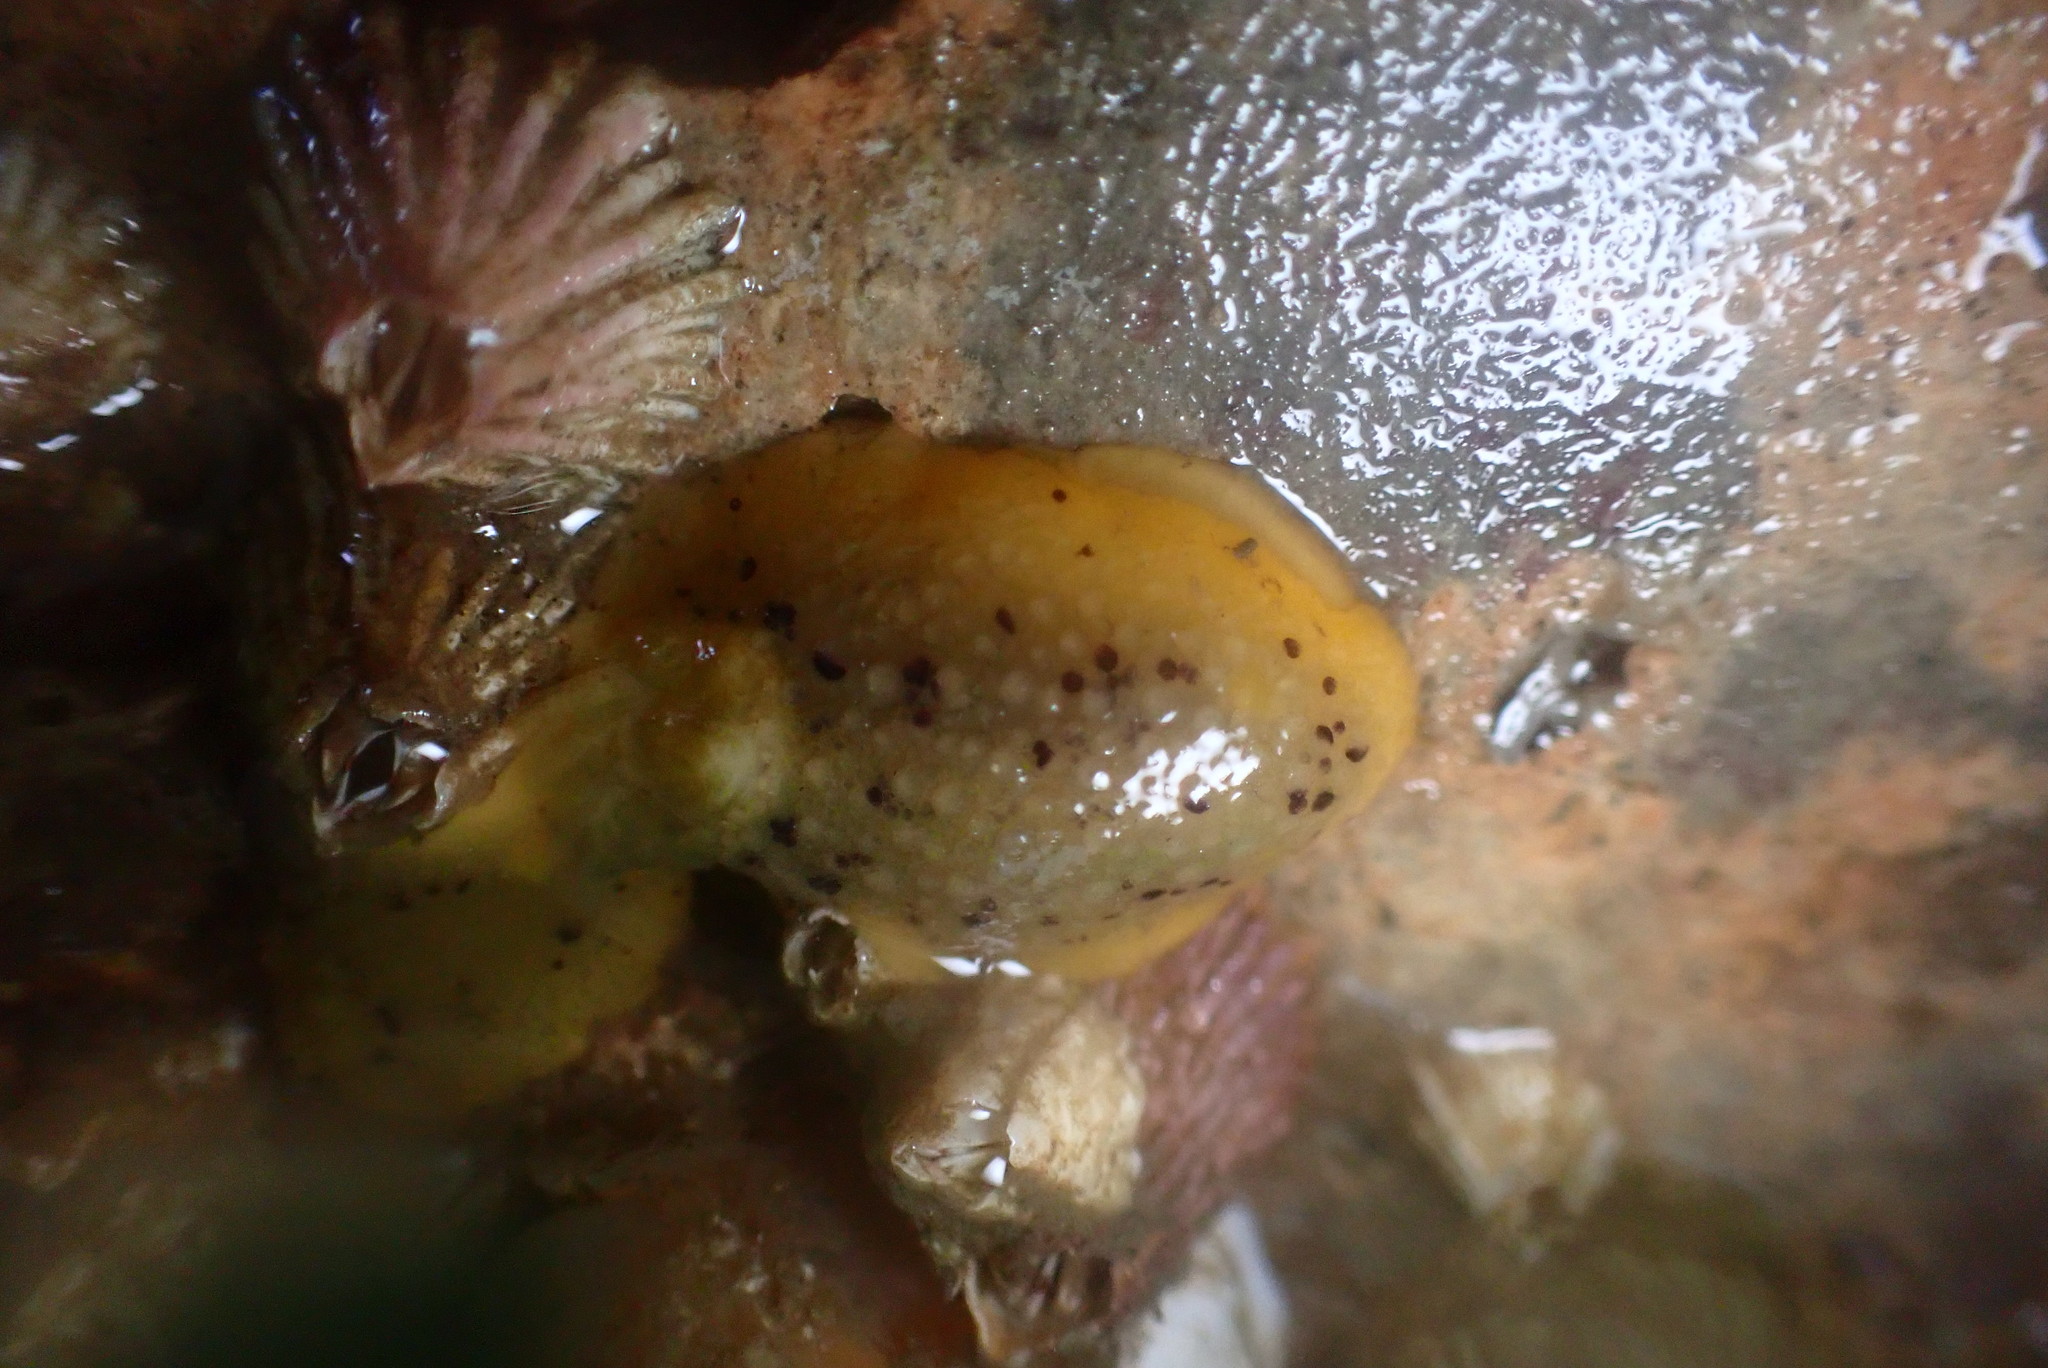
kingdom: Animalia
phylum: Mollusca
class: Gastropoda
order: Nudibranchia
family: Dorididae
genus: Doris
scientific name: Doris montereyensis
